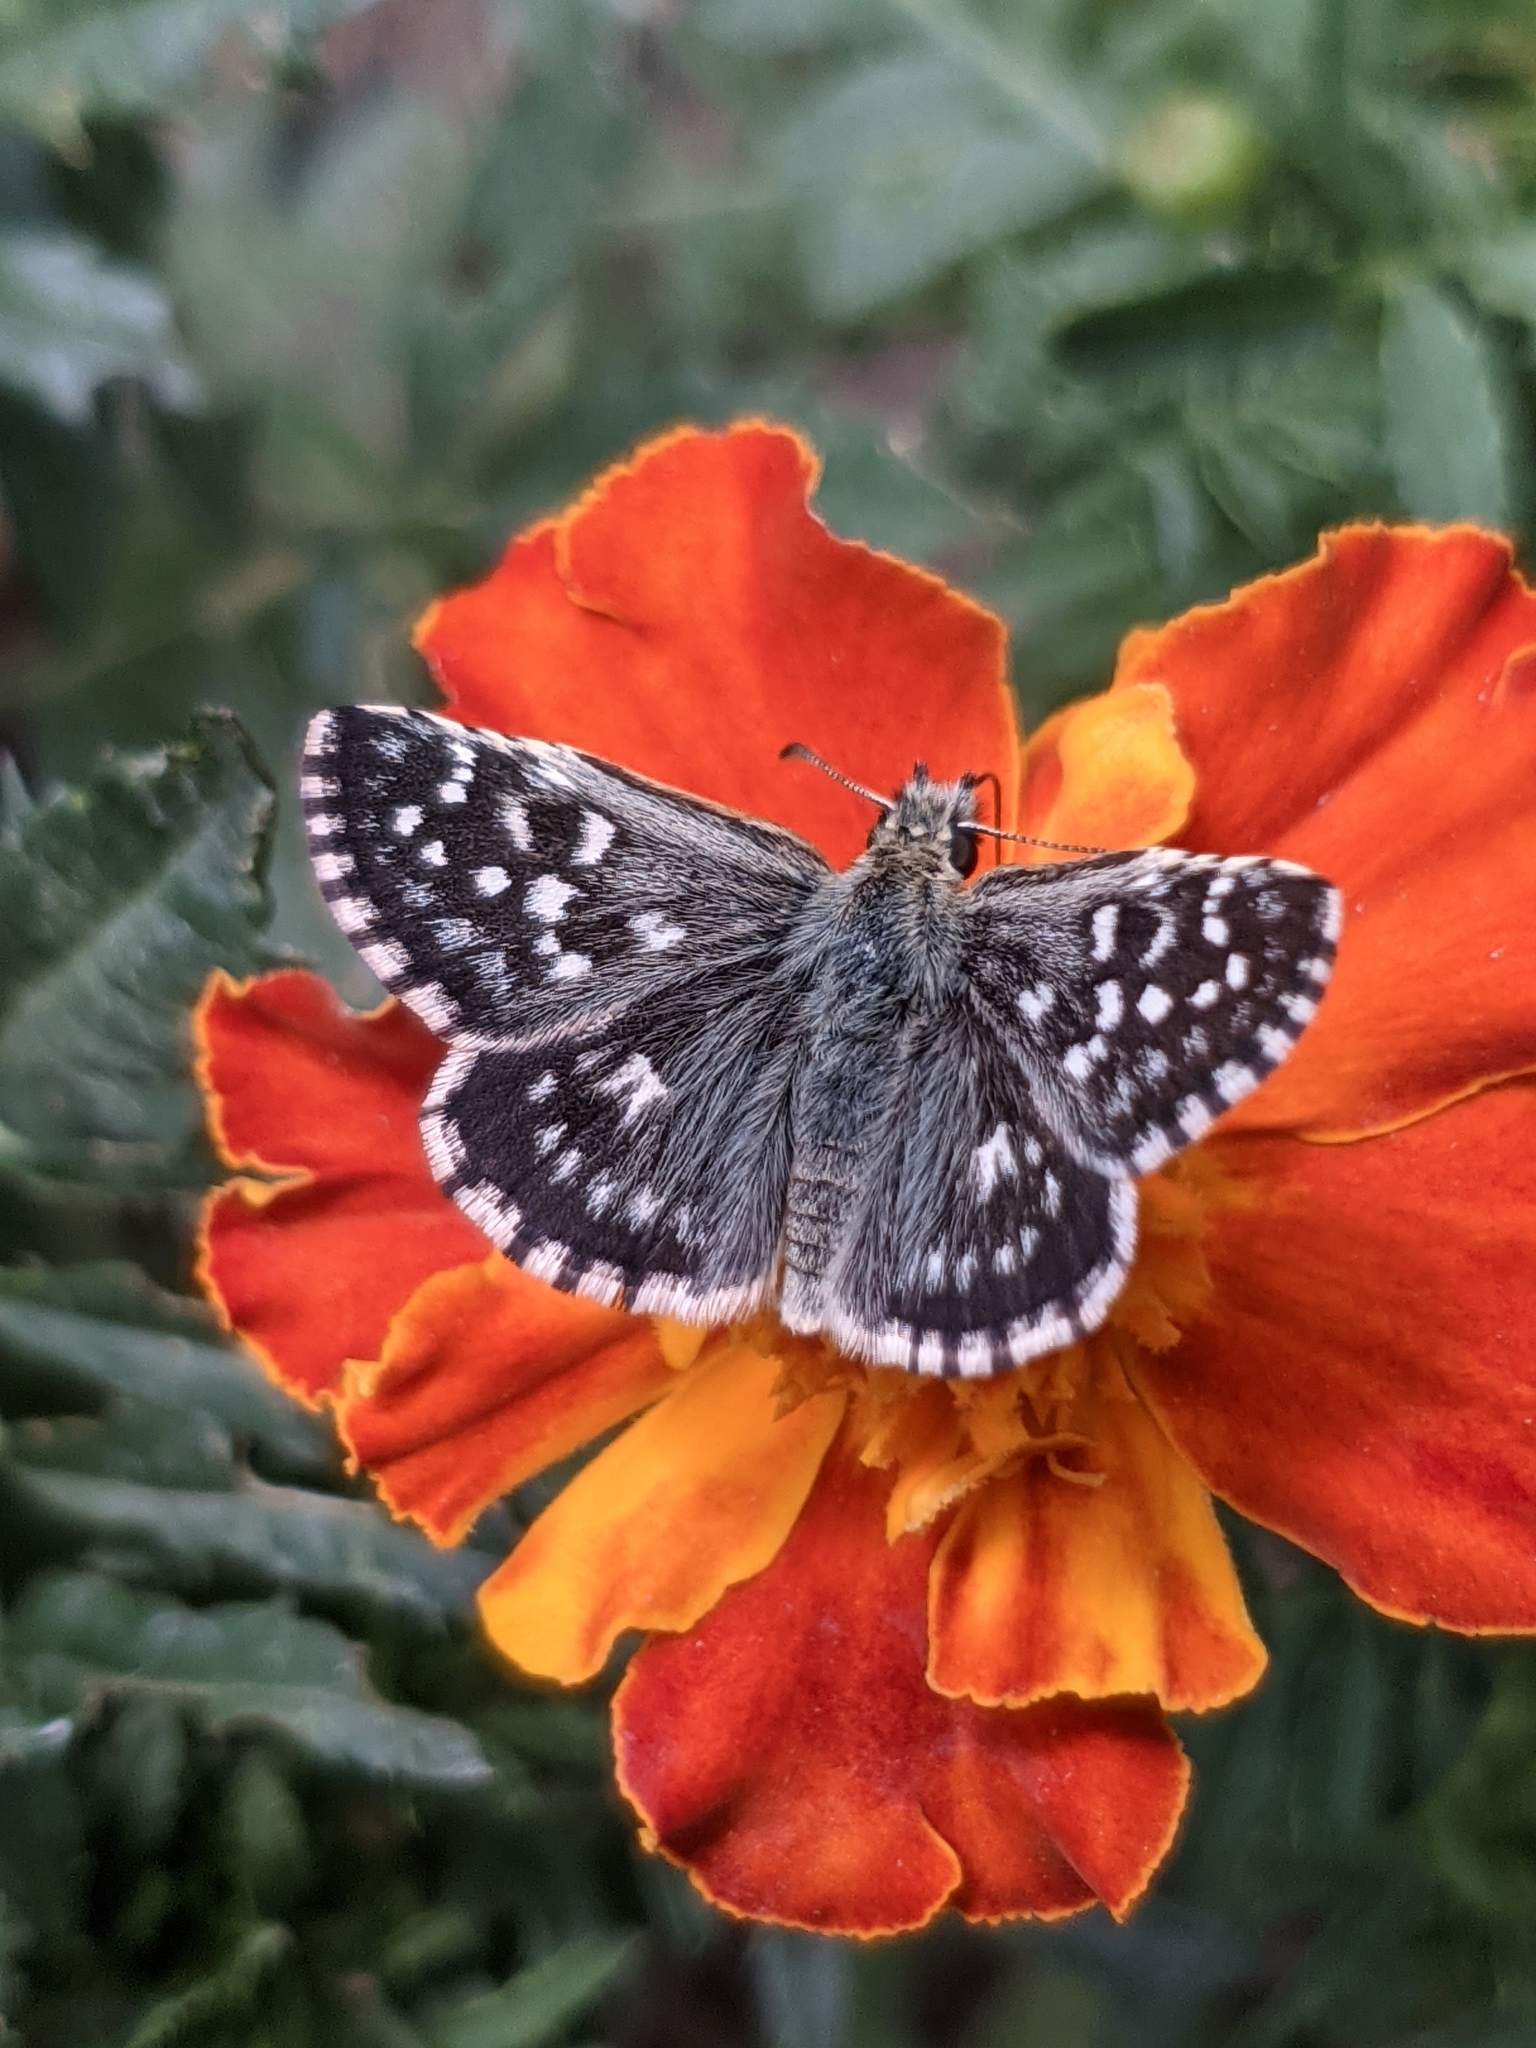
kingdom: Animalia
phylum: Arthropoda
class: Insecta
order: Lepidoptera
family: Hesperiidae
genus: Pyrgus
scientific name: Pyrgus malvae
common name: Grizzled skipper
